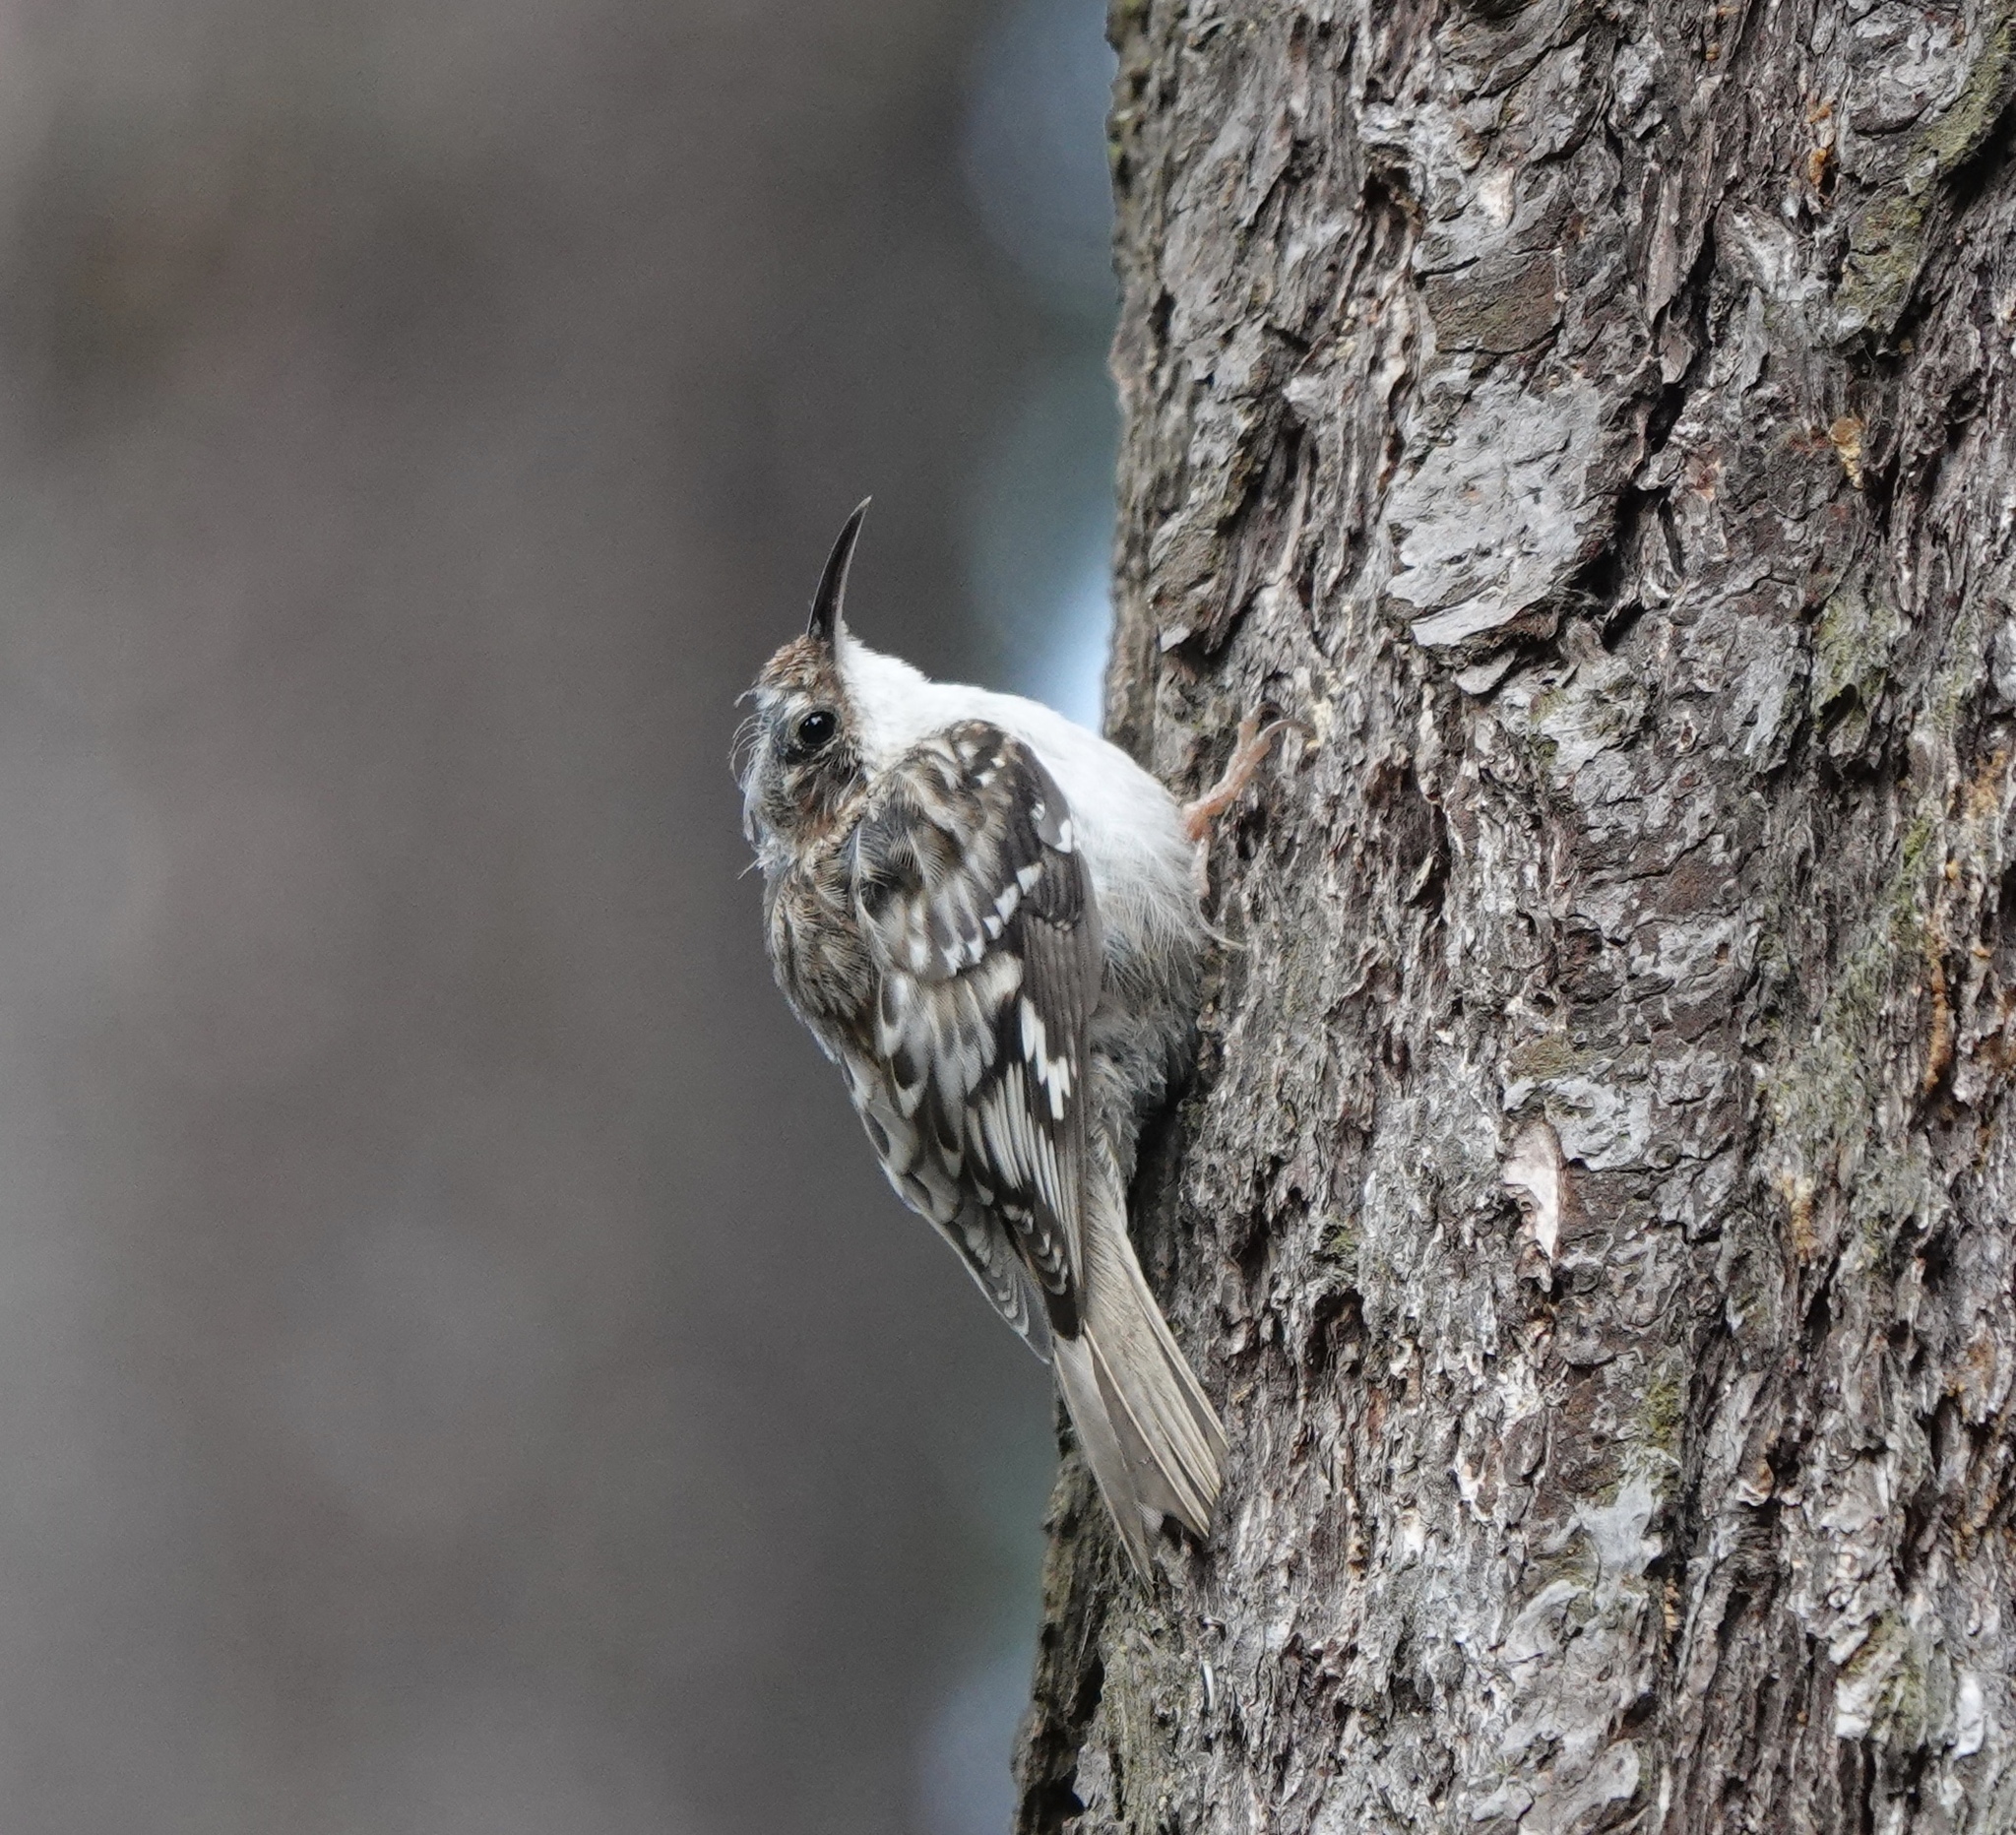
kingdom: Animalia
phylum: Chordata
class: Aves
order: Passeriformes
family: Certhiidae
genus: Certhia
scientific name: Certhia americana
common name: Brown creeper
